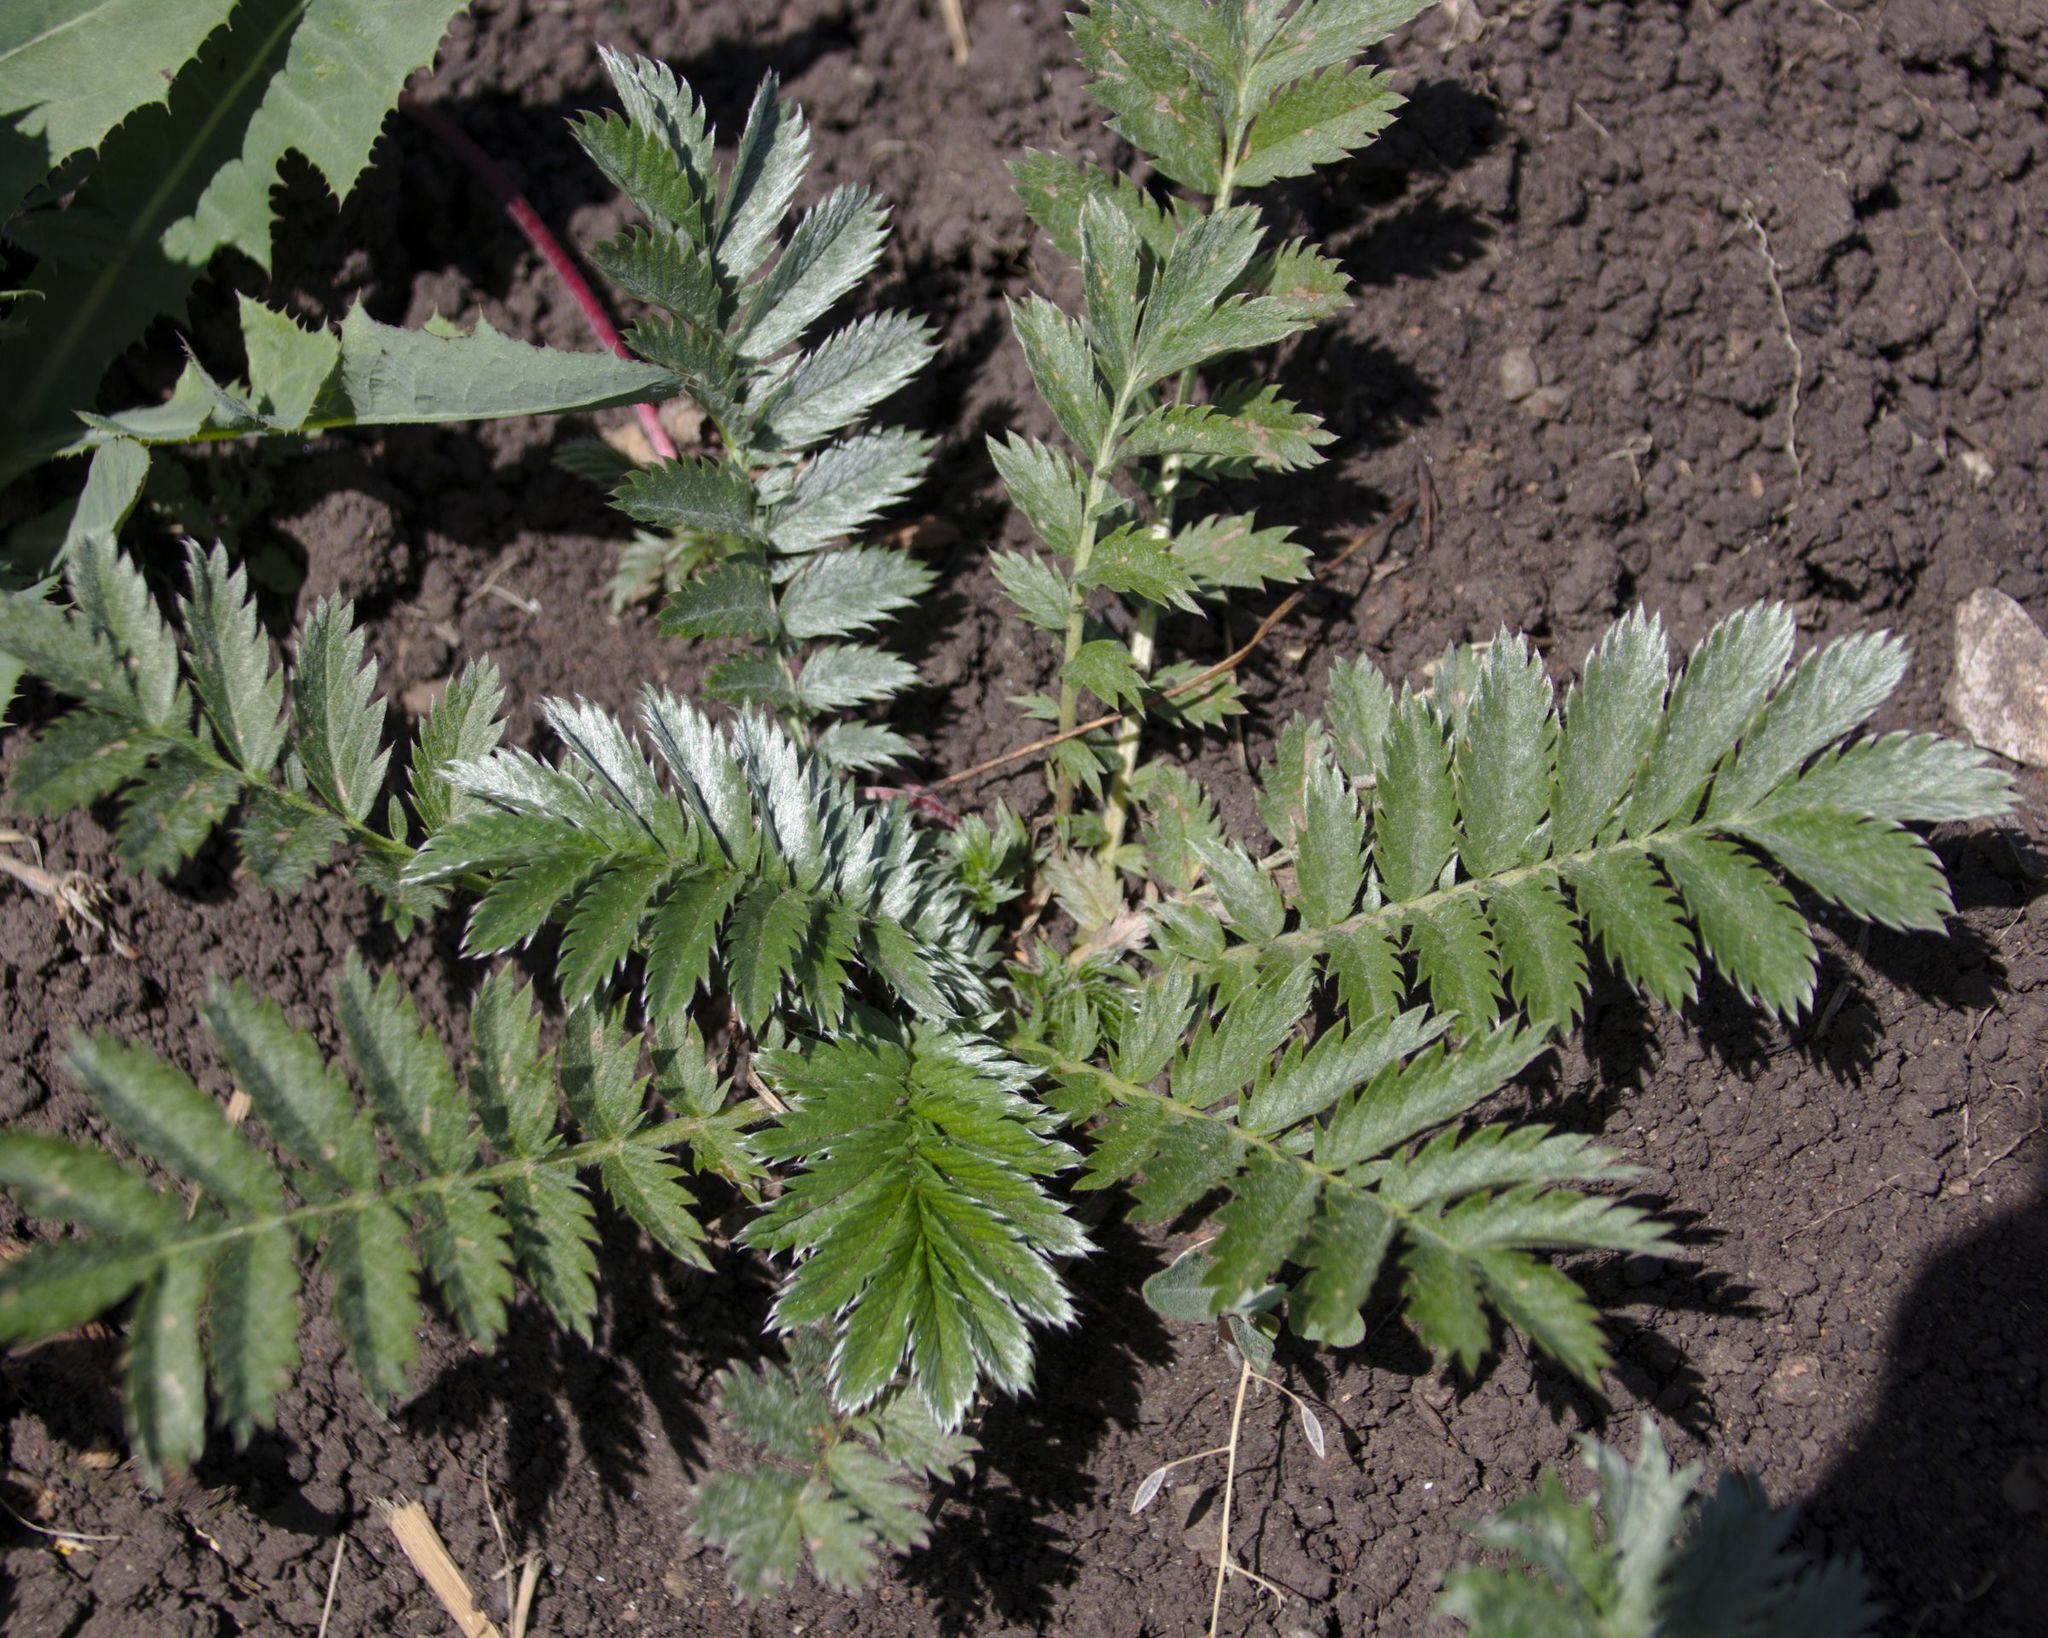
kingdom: Plantae
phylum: Tracheophyta
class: Magnoliopsida
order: Rosales
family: Rosaceae
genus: Argentina
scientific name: Argentina anserina
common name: Common silverweed
